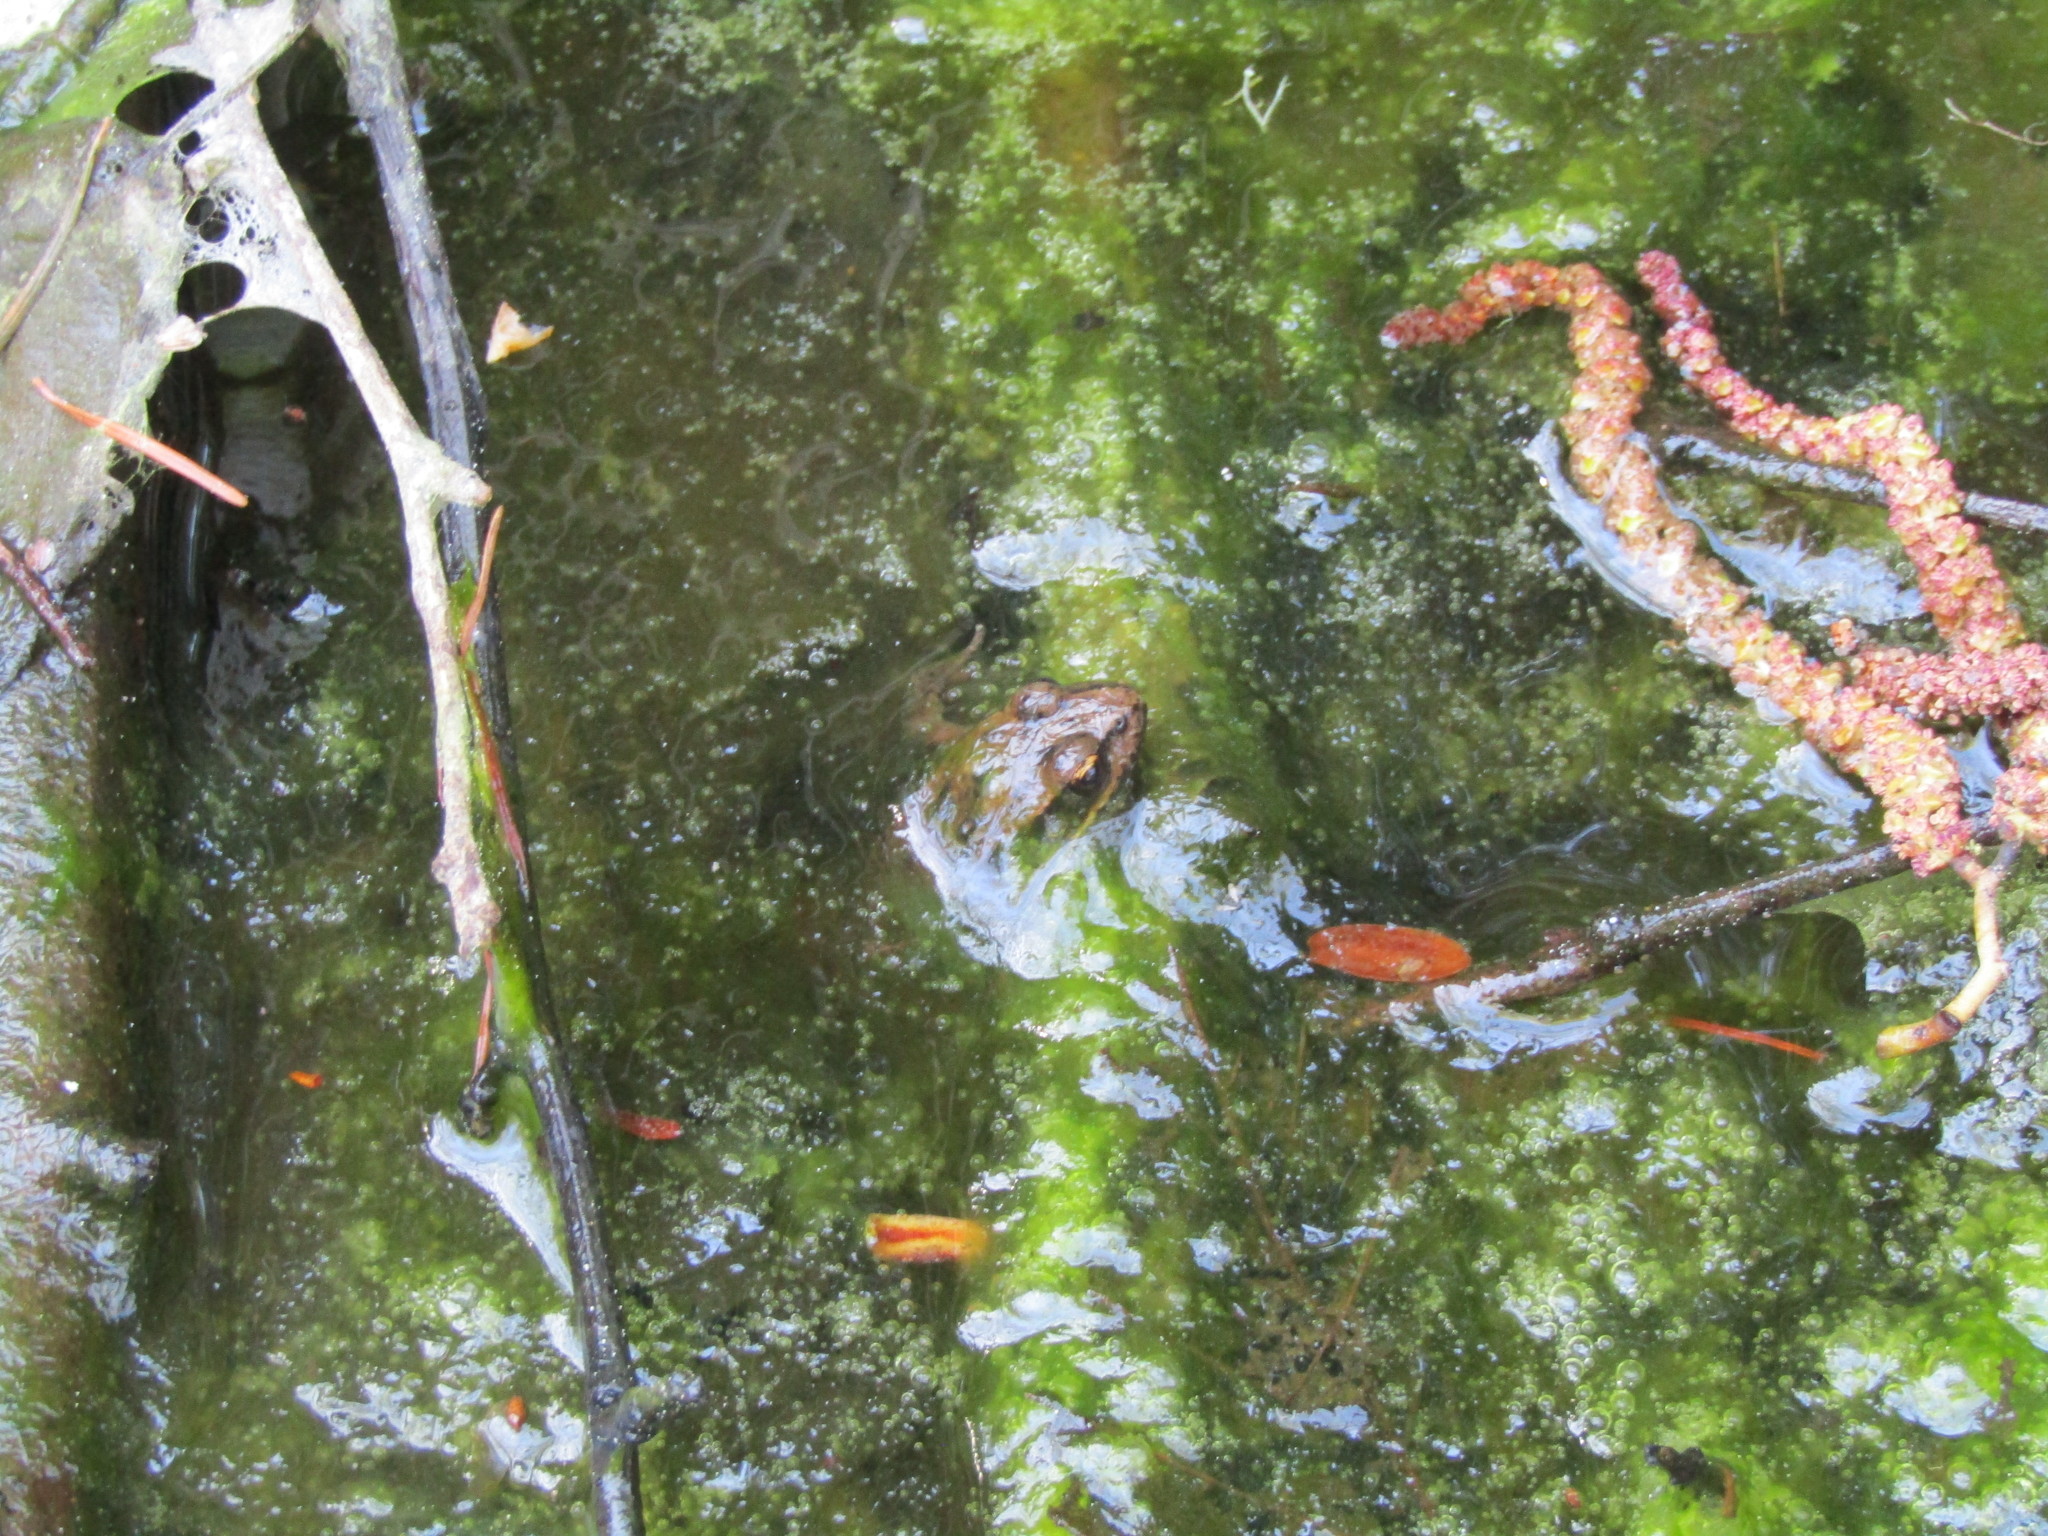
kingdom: Animalia
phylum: Chordata
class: Amphibia
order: Anura
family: Ranidae
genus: Rana
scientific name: Rana aurora
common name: Red-legged frog
